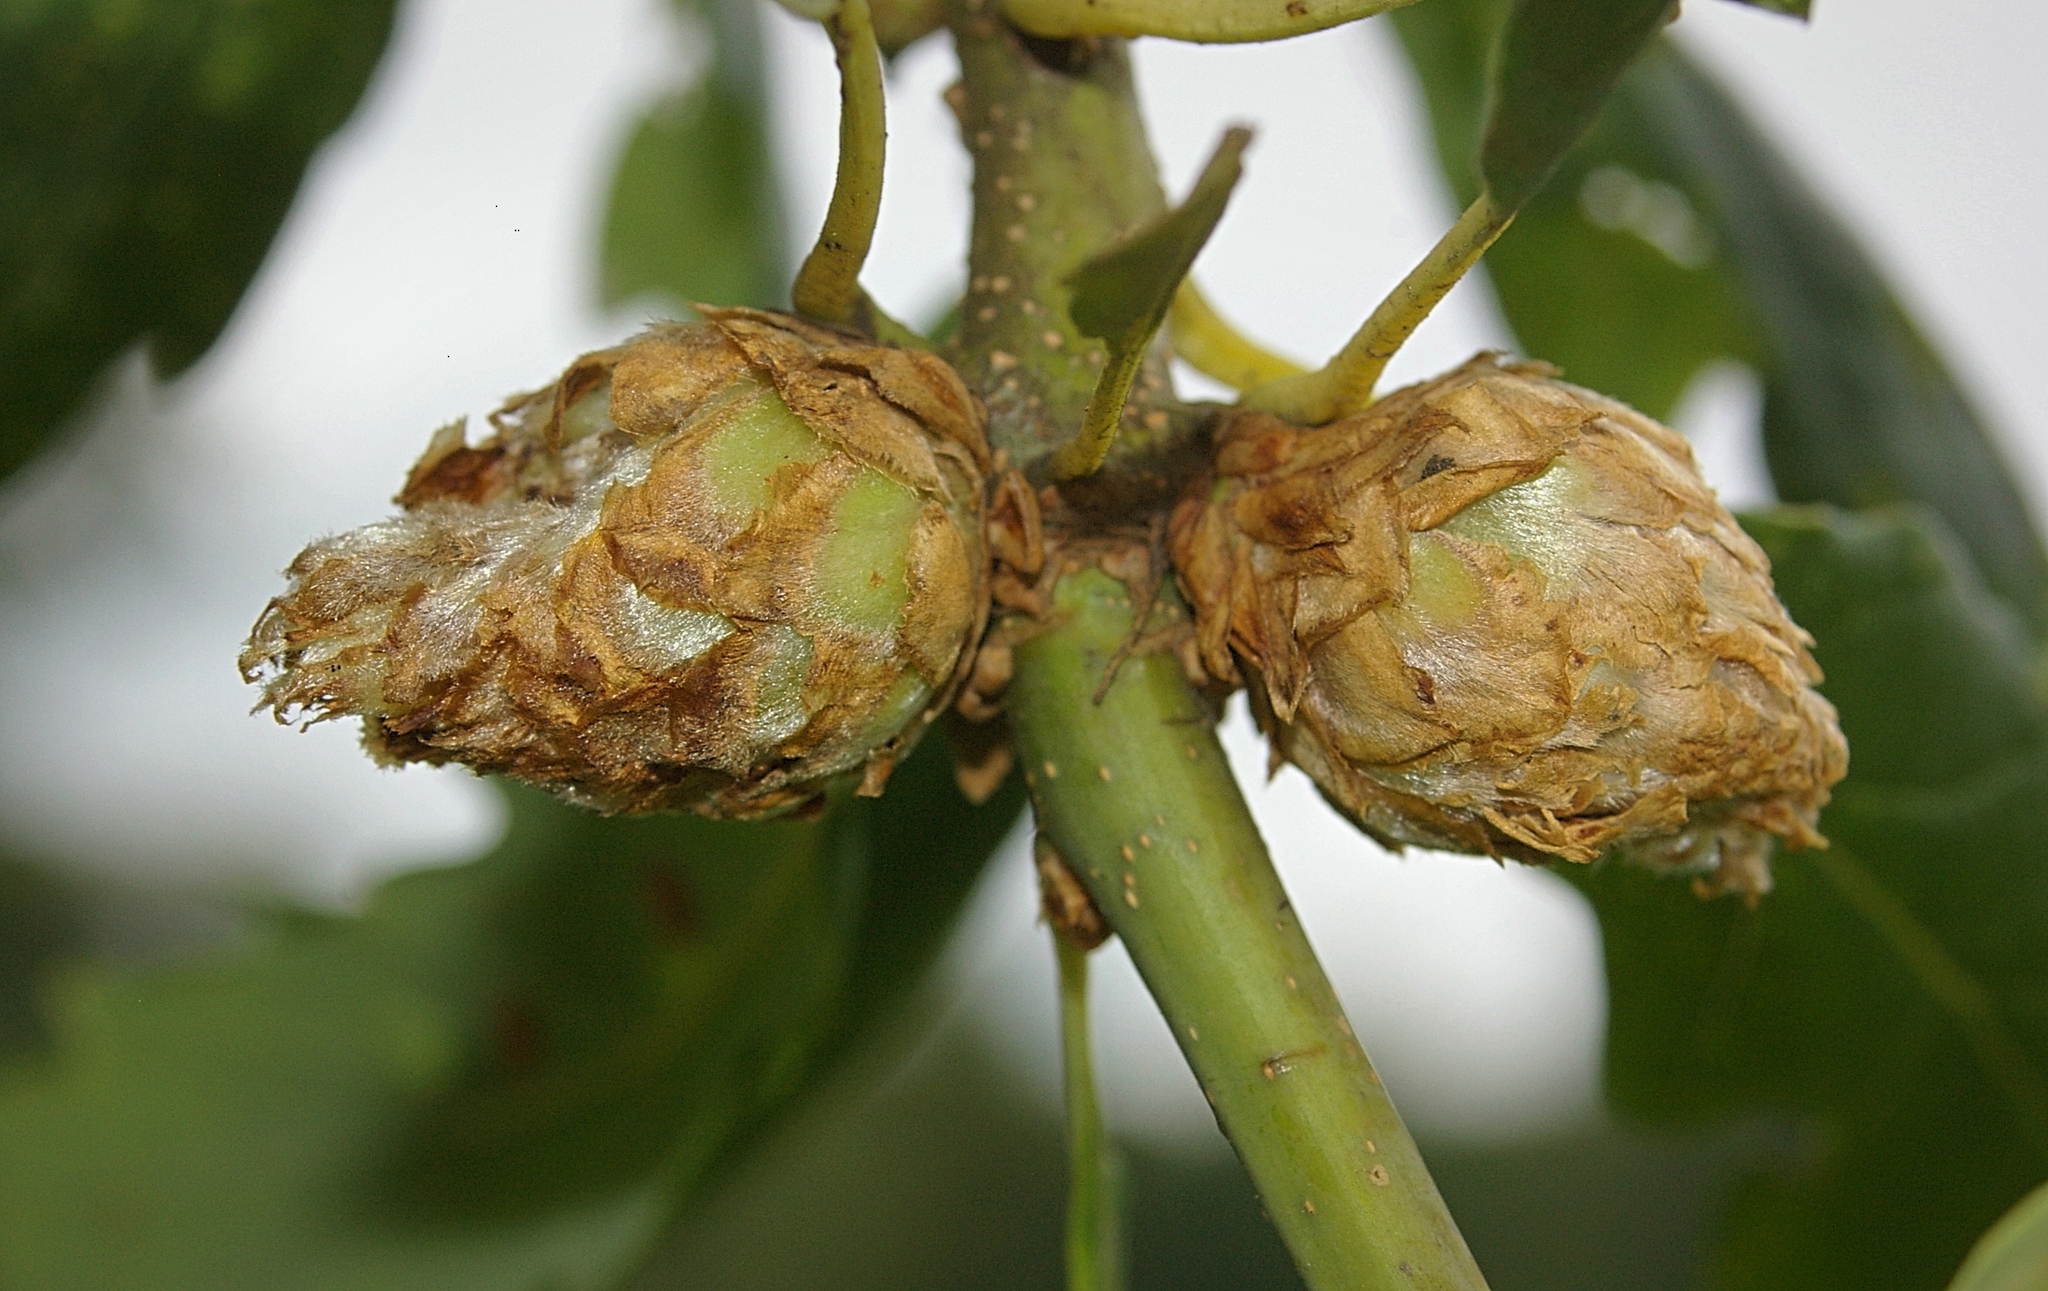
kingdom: Animalia
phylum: Arthropoda
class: Insecta
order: Hymenoptera
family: Cynipidae
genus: Andricus
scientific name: Andricus foecundatrix
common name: Artichoke gall
